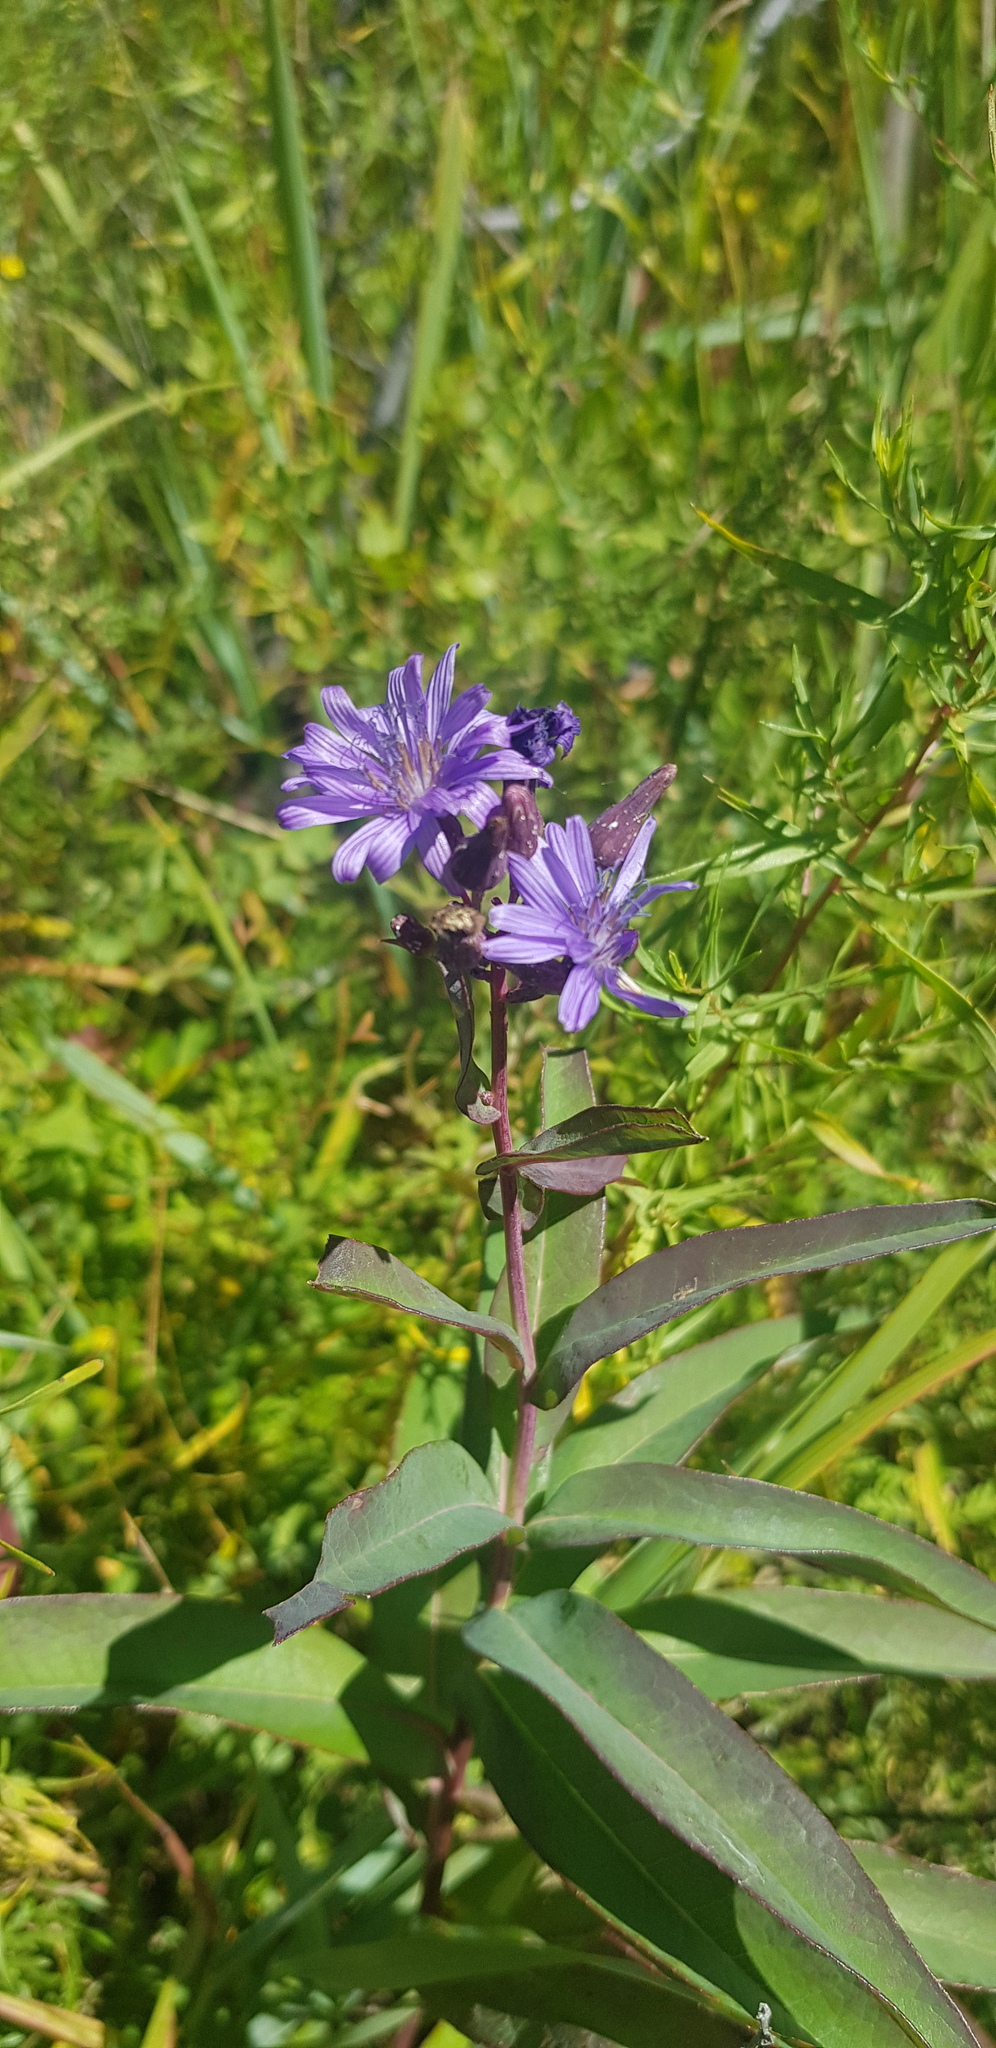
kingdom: Plantae
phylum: Tracheophyta
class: Magnoliopsida
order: Asterales
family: Asteraceae
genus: Lactuca
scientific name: Lactuca pulchella
